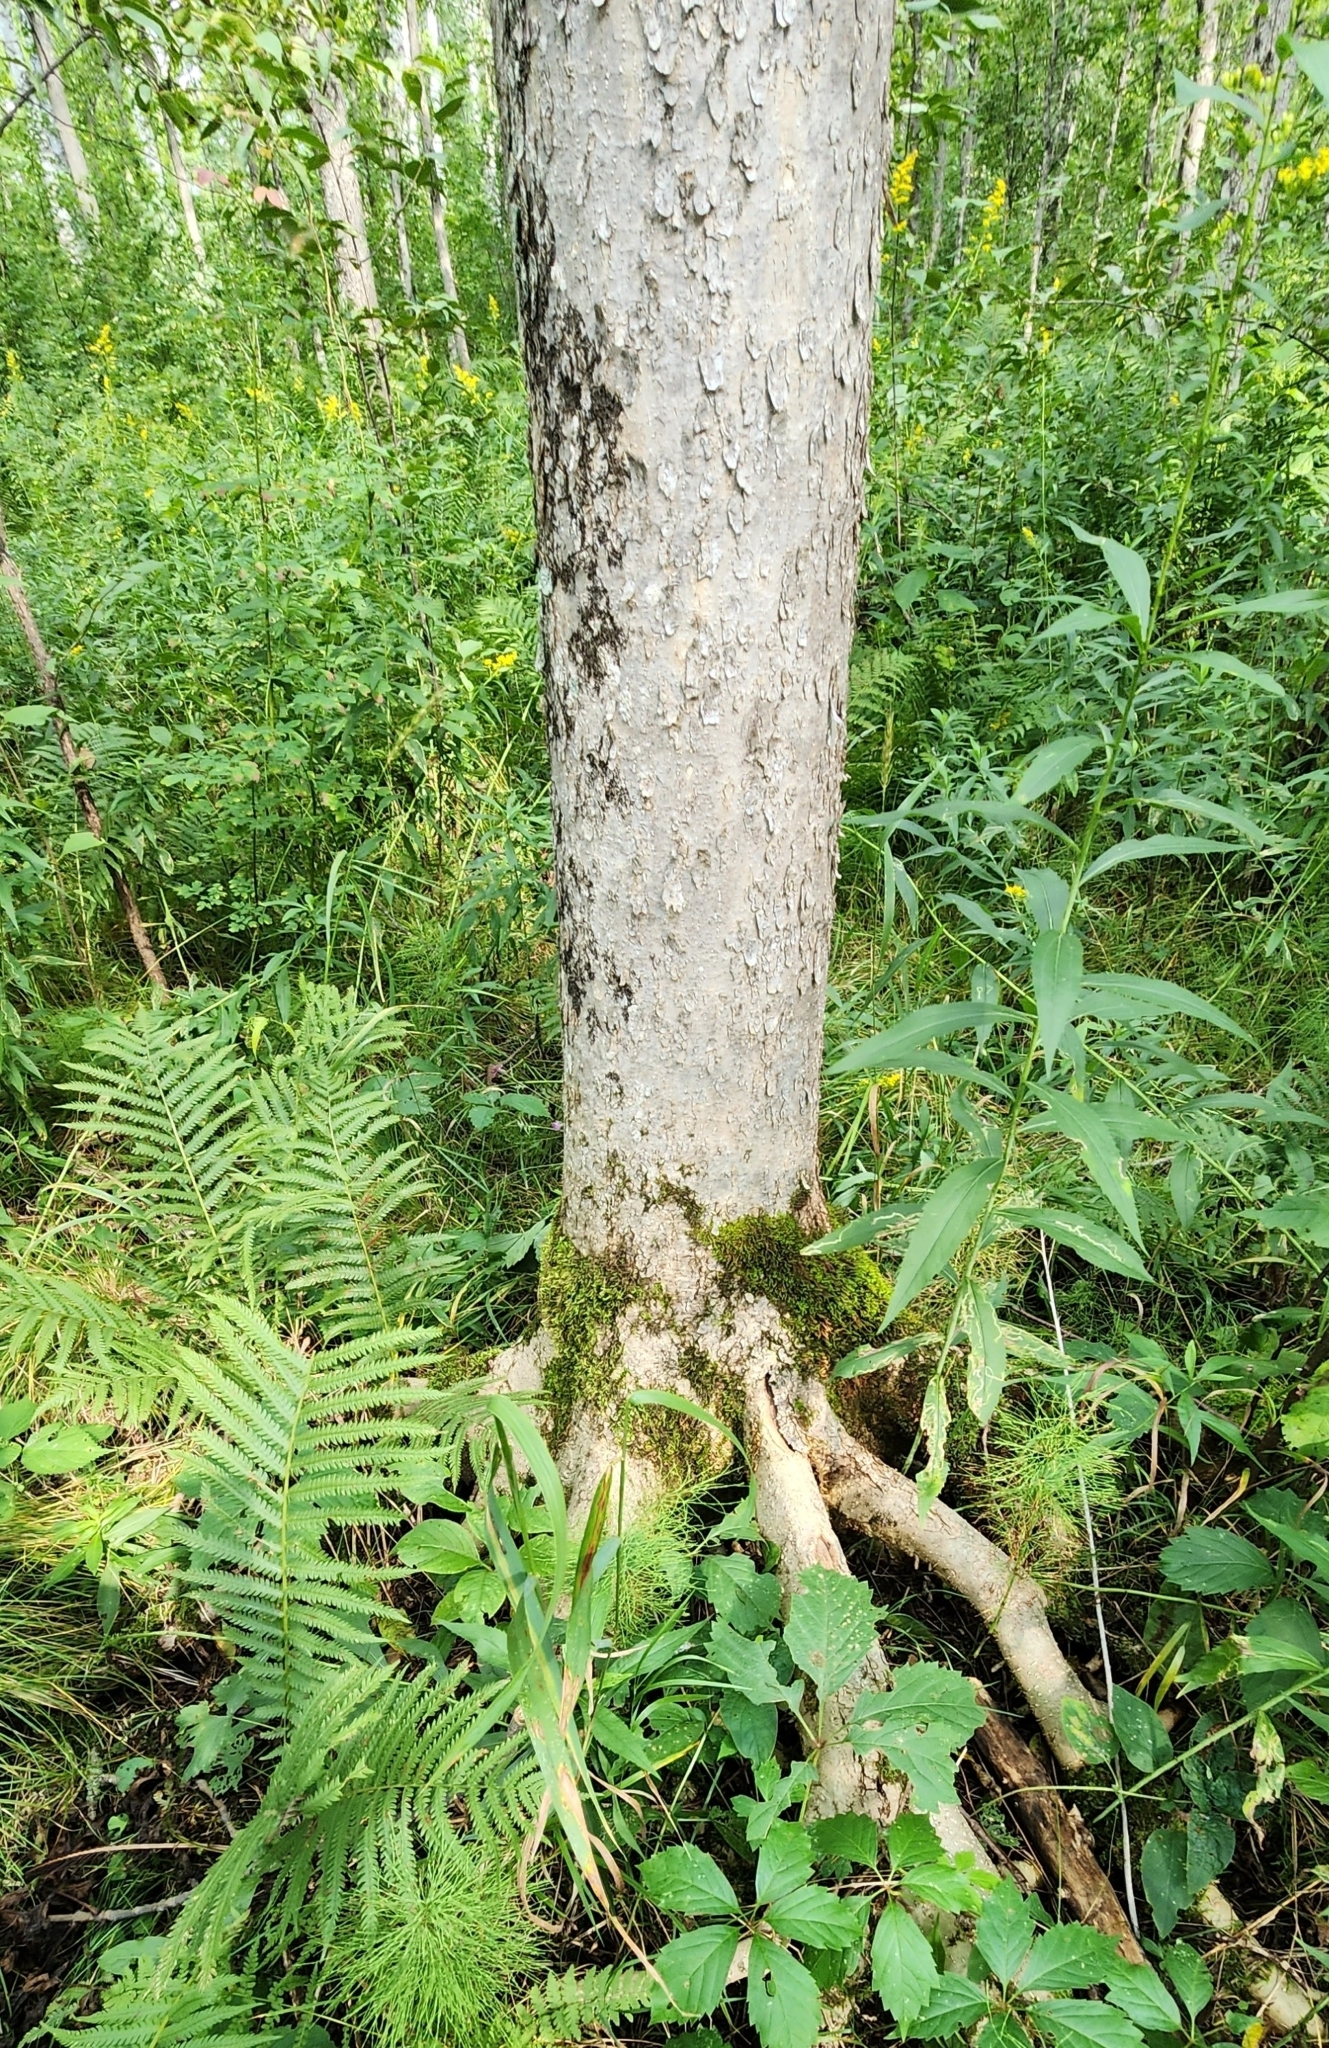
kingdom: Plantae
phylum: Tracheophyta
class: Magnoliopsida
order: Lamiales
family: Oleaceae
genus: Fraxinus
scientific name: Fraxinus nigra
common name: Black ash
